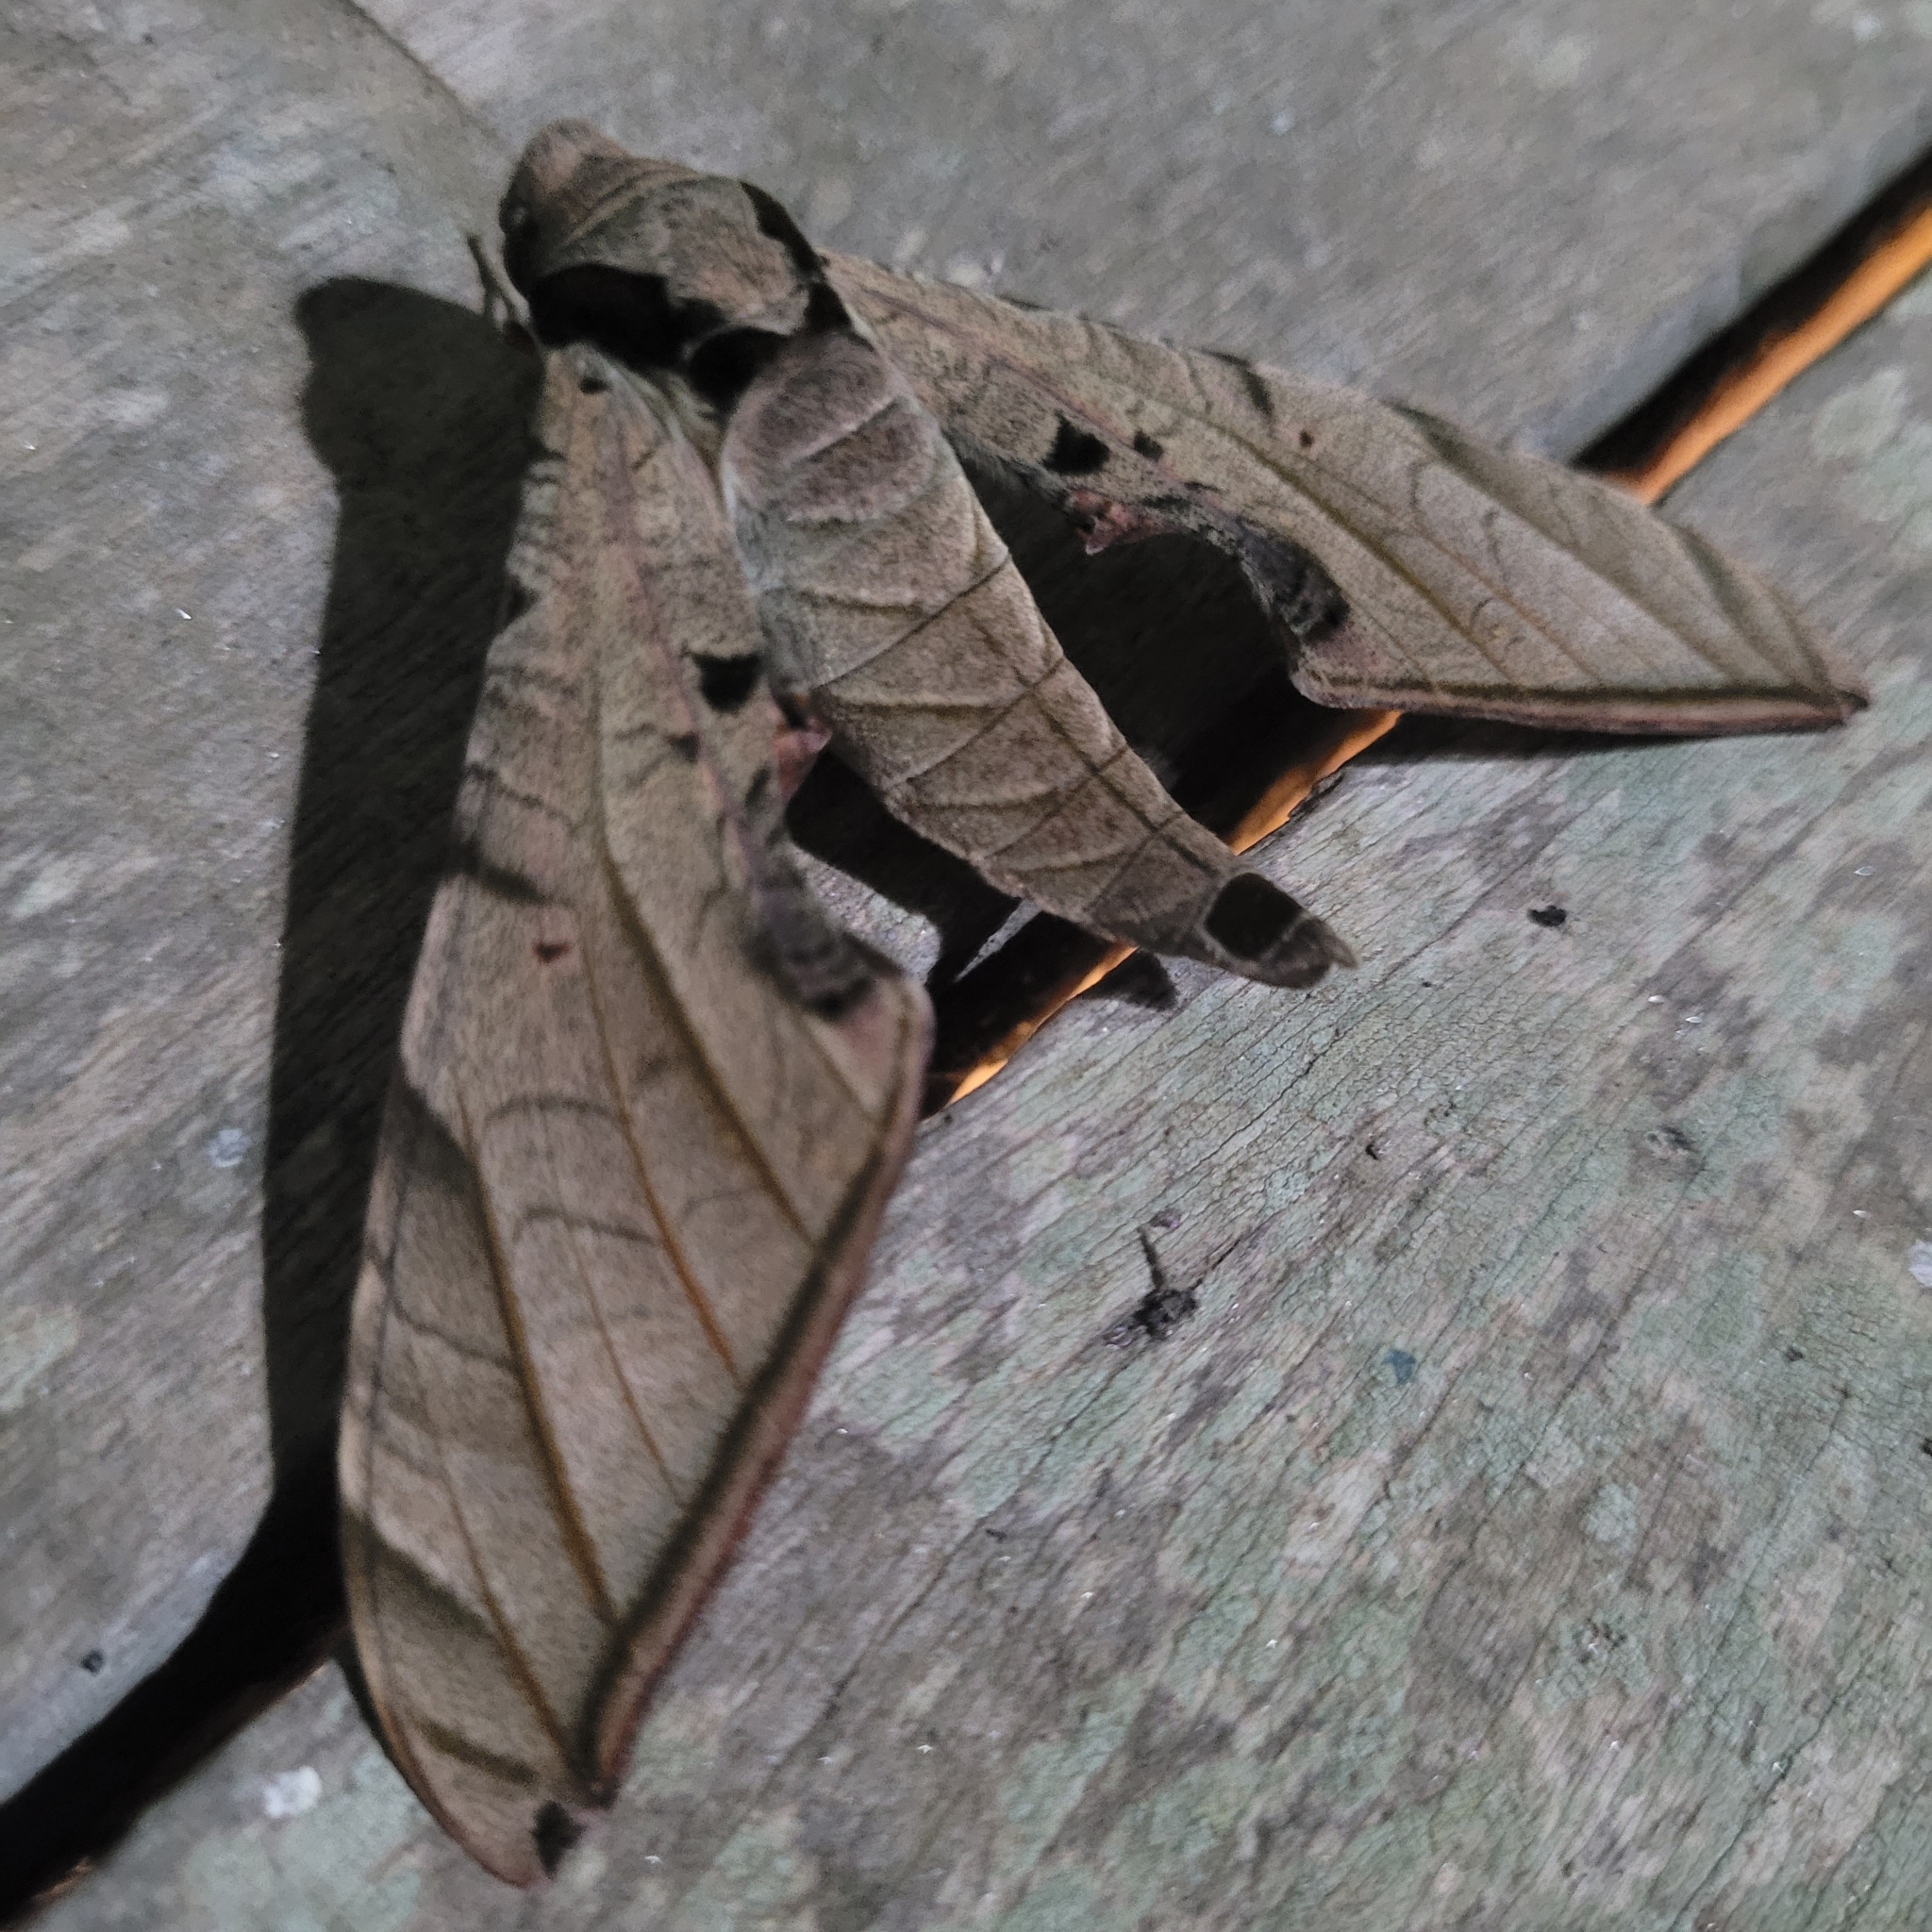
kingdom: Animalia
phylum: Arthropoda
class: Insecta
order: Lepidoptera
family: Sphingidae
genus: Protambulyx
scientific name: Protambulyx strigilis
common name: Streaked sphinx
